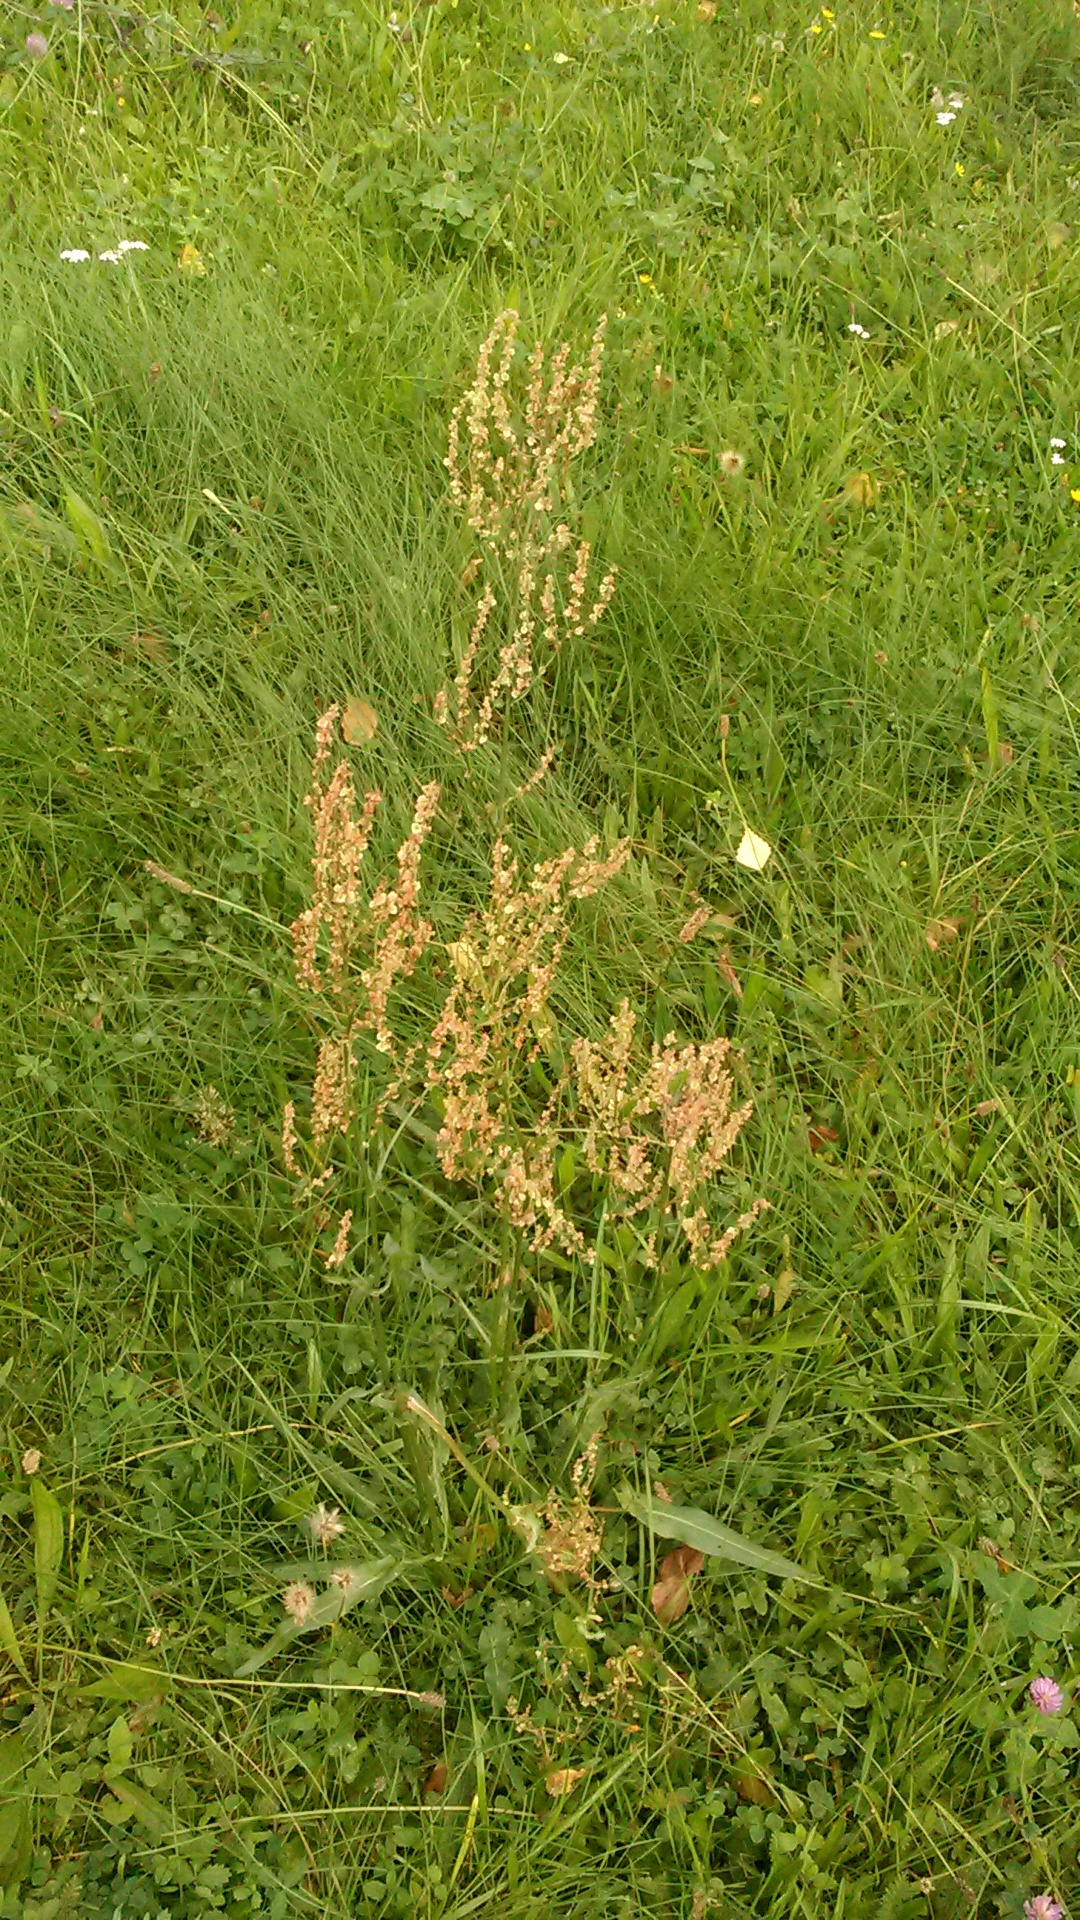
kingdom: Plantae
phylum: Tracheophyta
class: Magnoliopsida
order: Caryophyllales
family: Polygonaceae
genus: Rumex
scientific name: Rumex acetosa
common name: Garden sorrel
